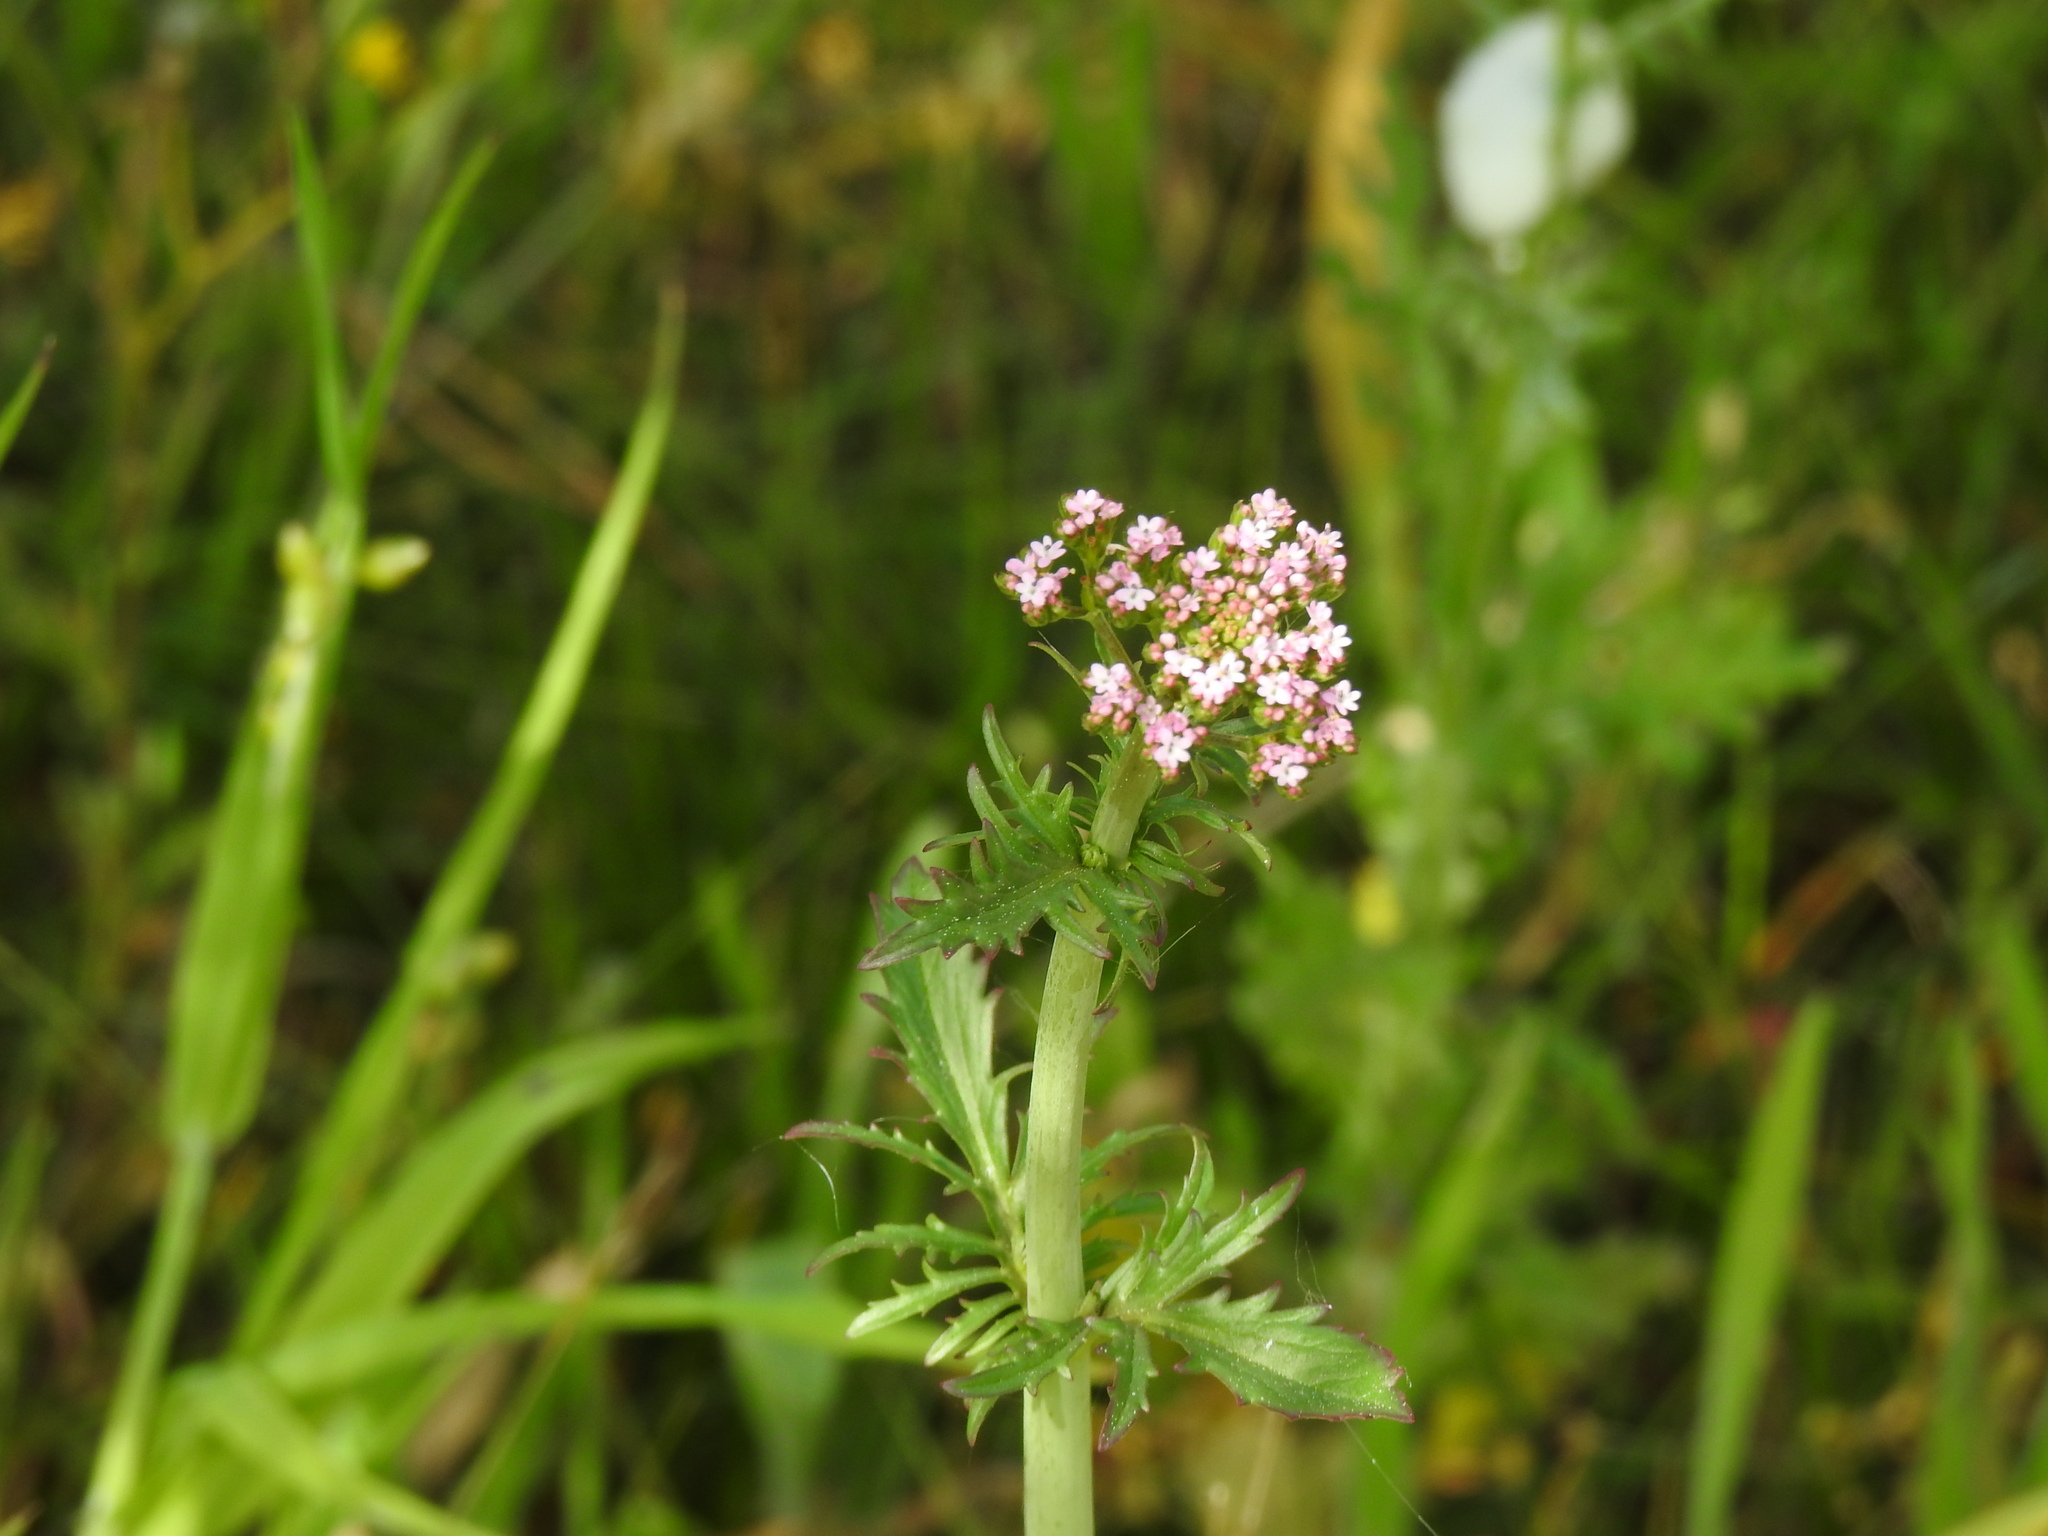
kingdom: Plantae
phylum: Tracheophyta
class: Magnoliopsida
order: Dipsacales
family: Caprifoliaceae
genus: Centranthus
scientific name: Centranthus calcitrapae
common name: Annual valerian
